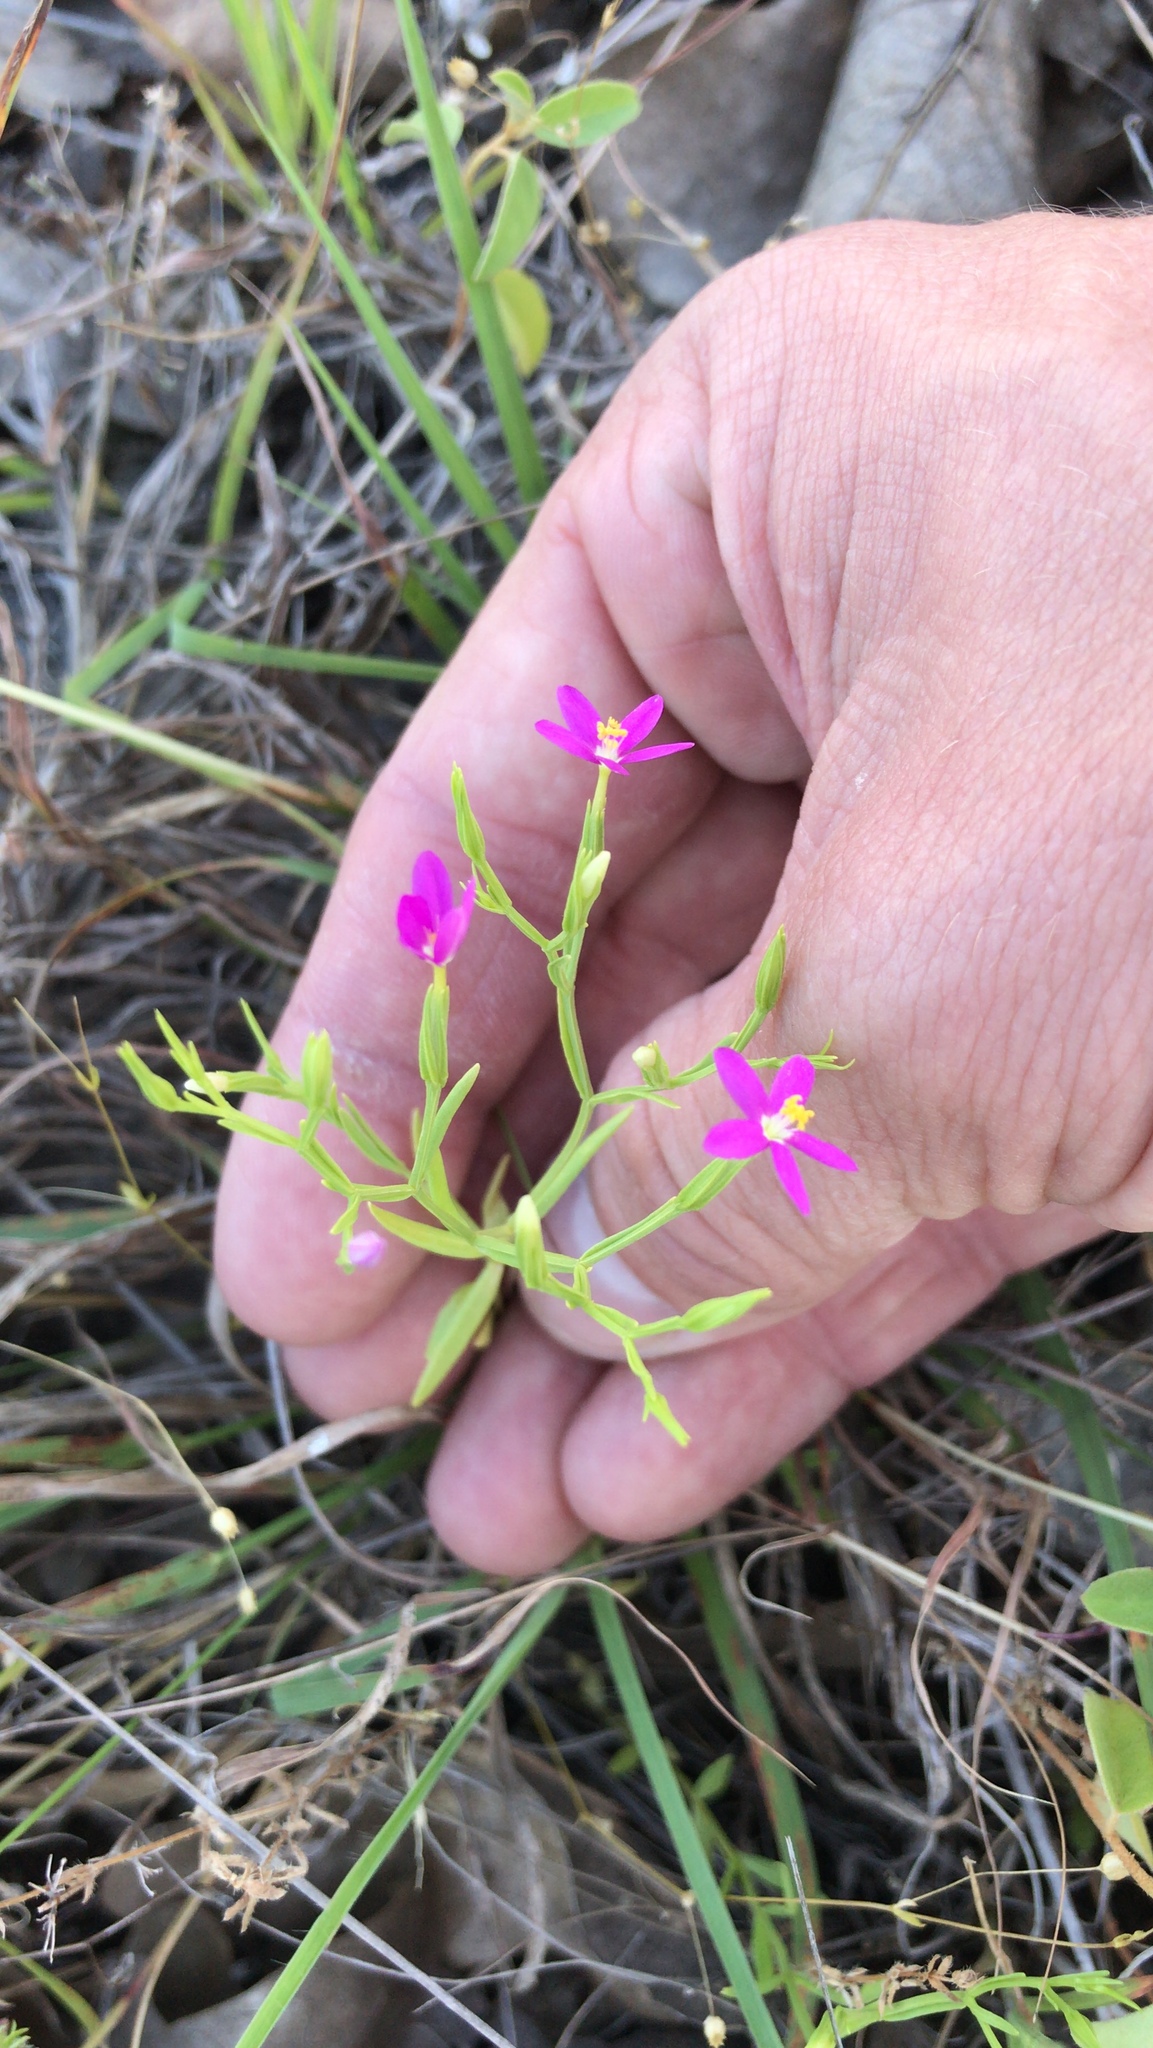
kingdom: Plantae
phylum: Tracheophyta
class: Magnoliopsida
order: Gentianales
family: Gentianaceae
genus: Zeltnera
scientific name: Zeltnera texensis
